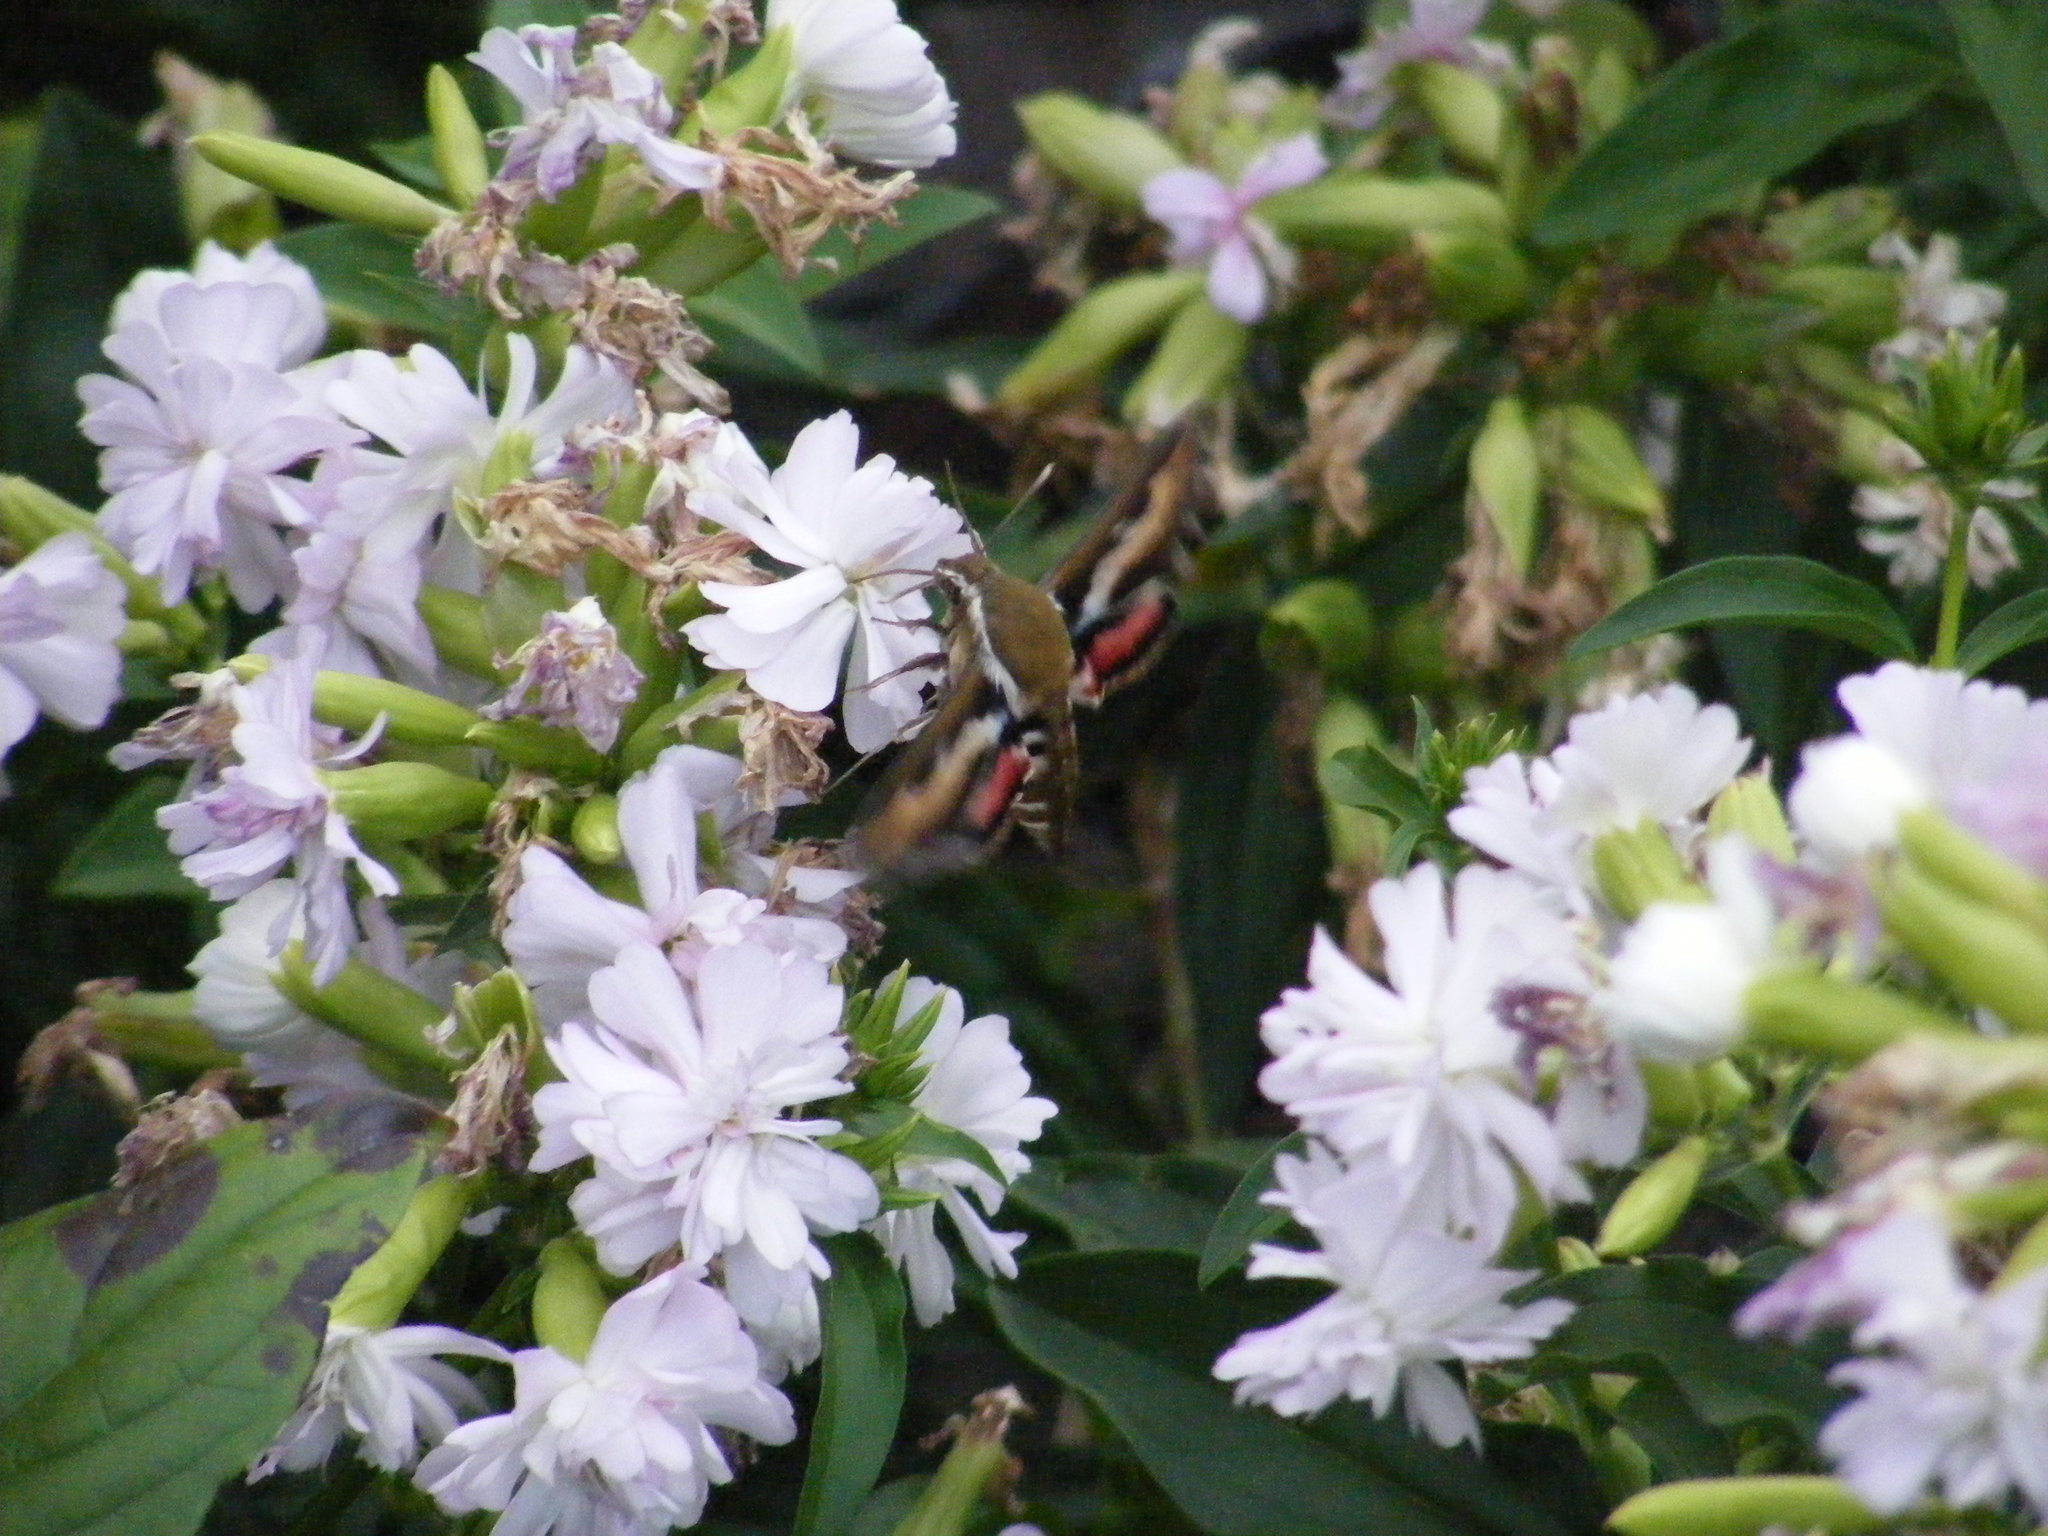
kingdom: Animalia
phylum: Arthropoda
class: Insecta
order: Lepidoptera
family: Sphingidae
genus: Hyles
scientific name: Hyles gallii
